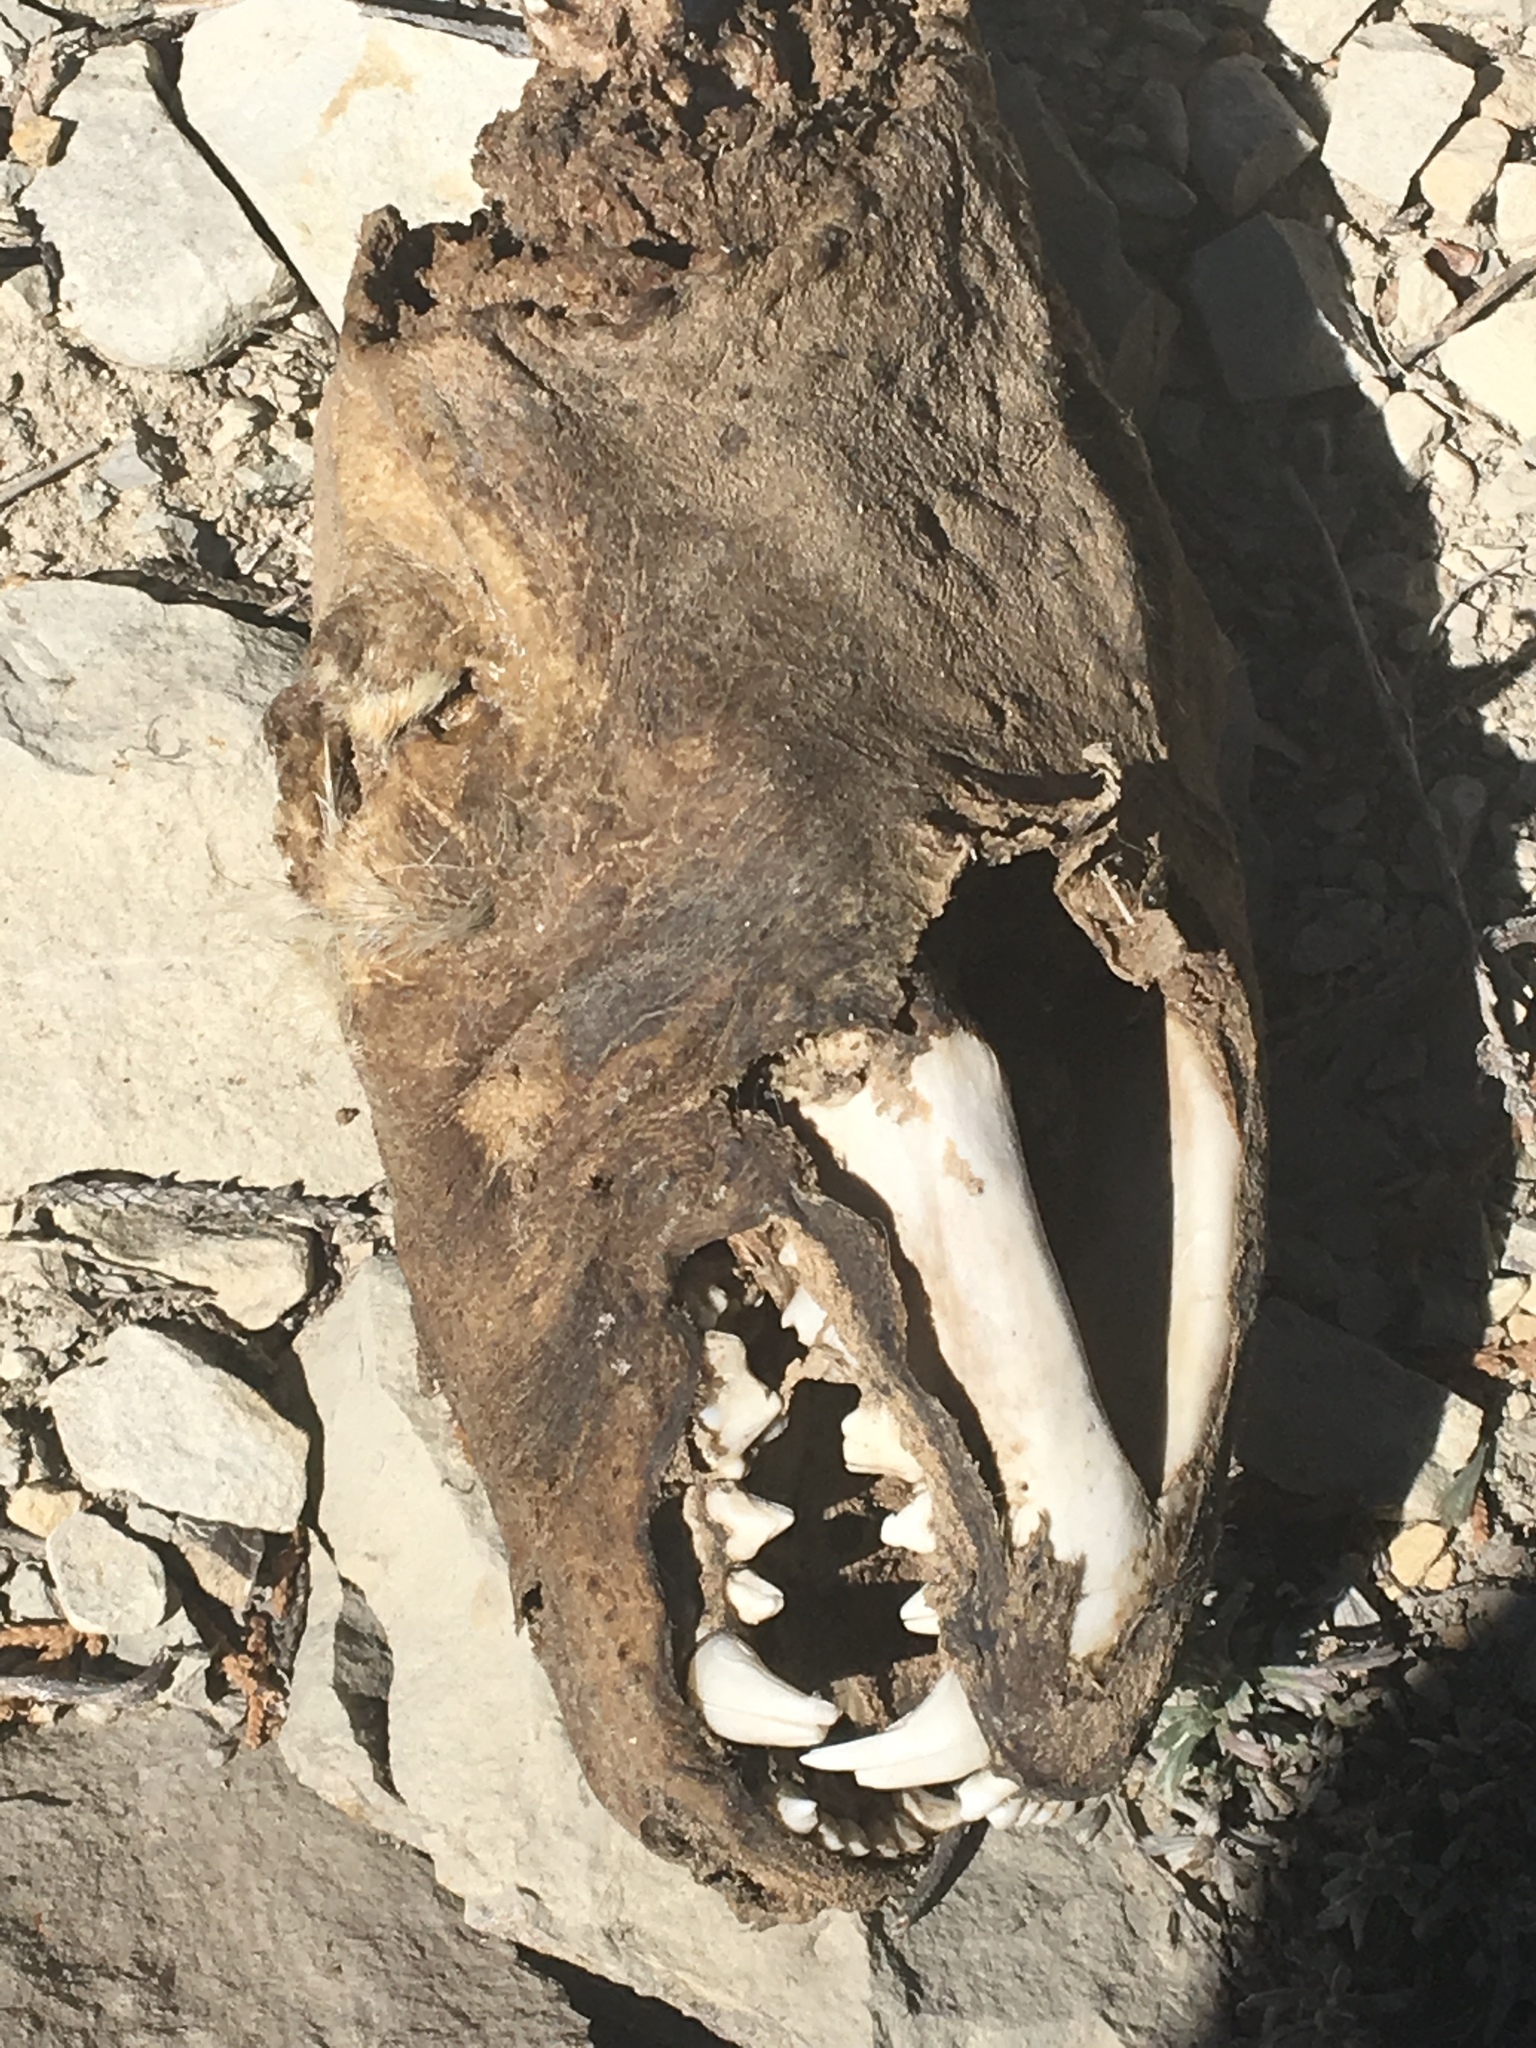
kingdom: Animalia
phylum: Chordata
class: Mammalia
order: Carnivora
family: Mustelidae
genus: Taxidea
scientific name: Taxidea taxus
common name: American badger
